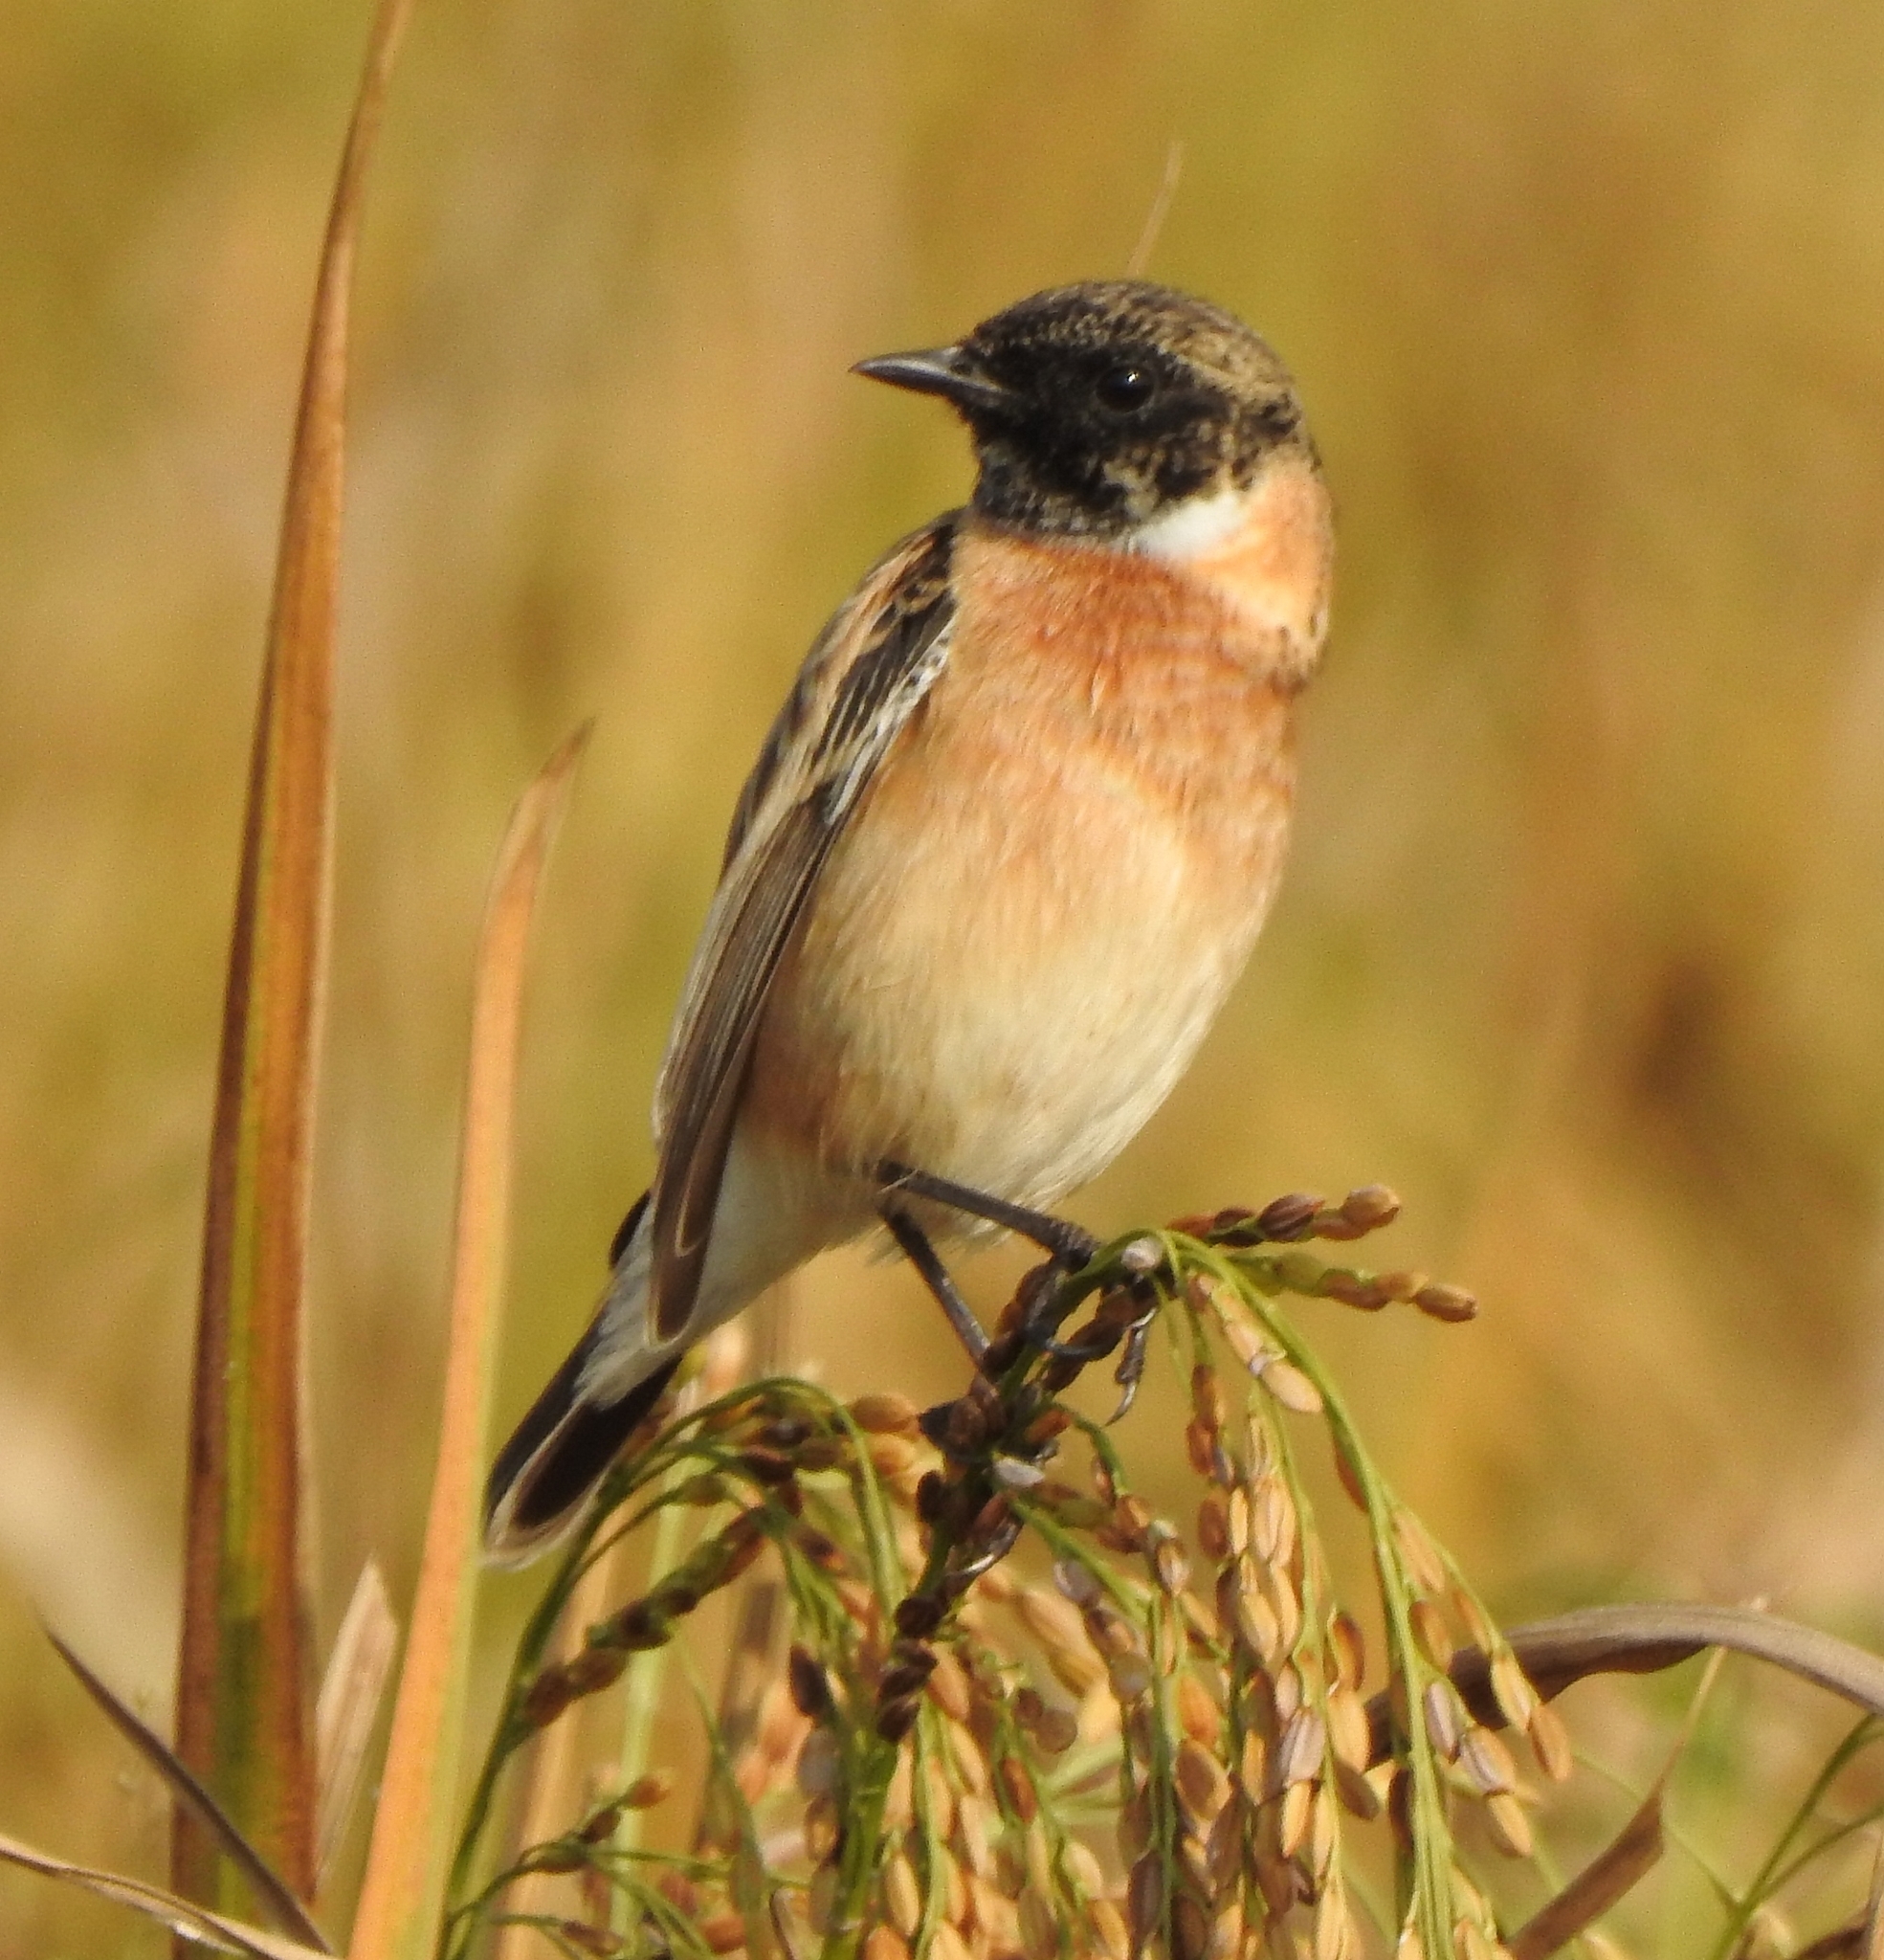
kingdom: Animalia
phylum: Chordata
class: Aves
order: Passeriformes
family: Muscicapidae
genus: Saxicola
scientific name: Saxicola maurus
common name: Siberian stonechat
